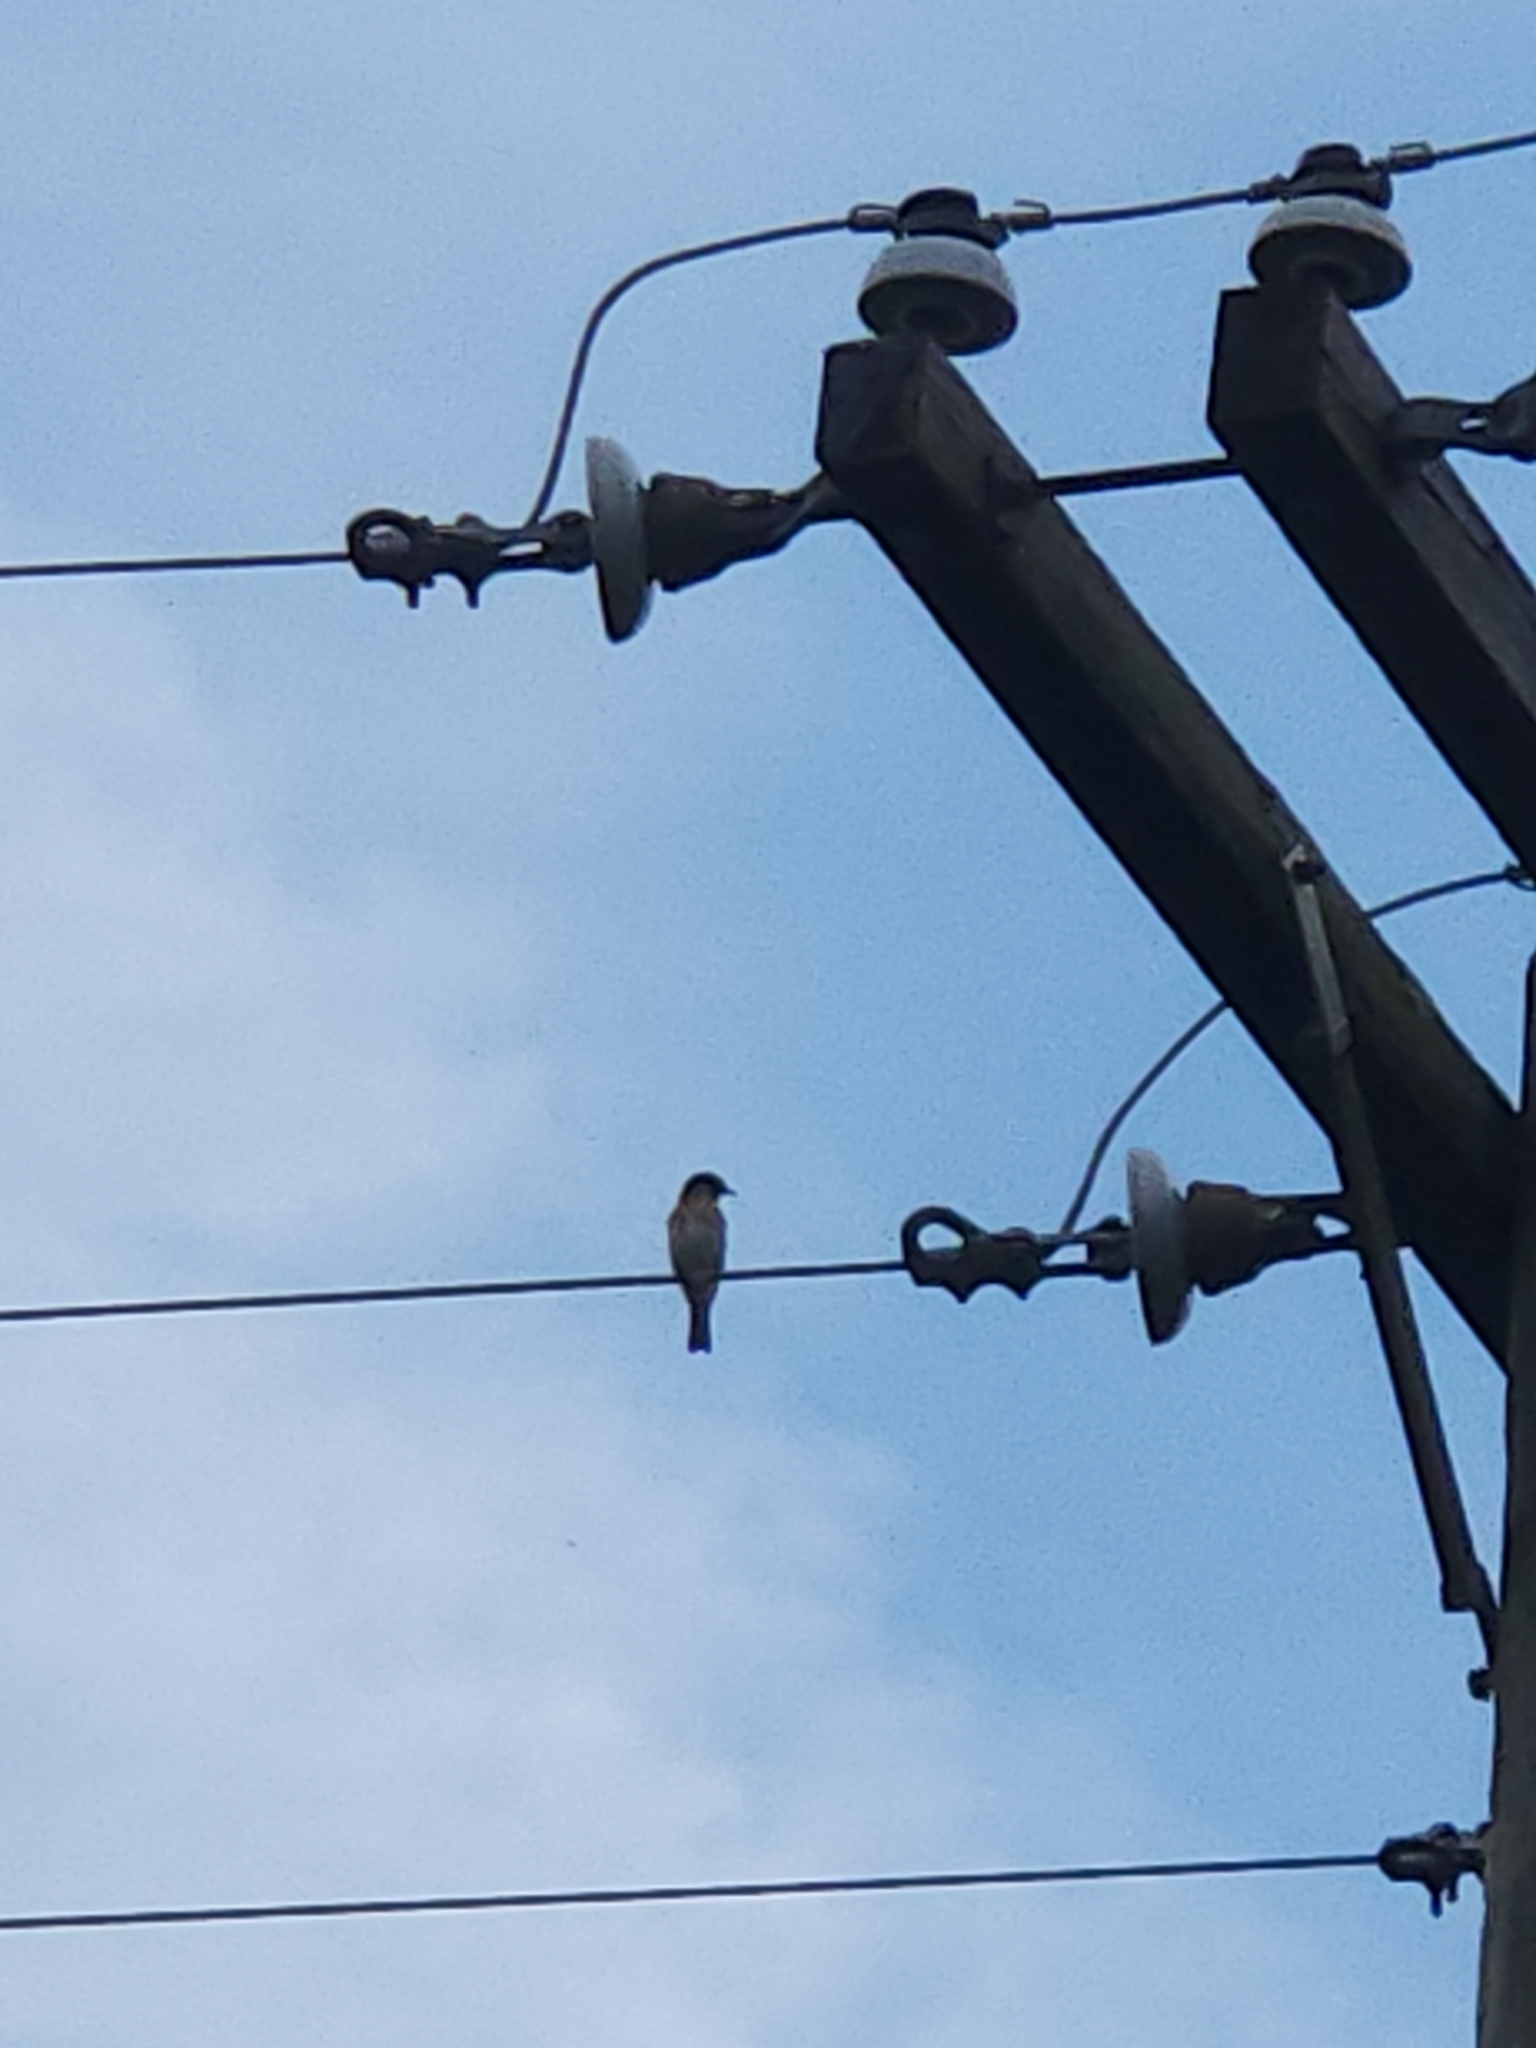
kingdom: Animalia
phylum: Chordata
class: Aves
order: Passeriformes
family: Turdidae
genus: Sialia
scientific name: Sialia sialis
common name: Eastern bluebird
